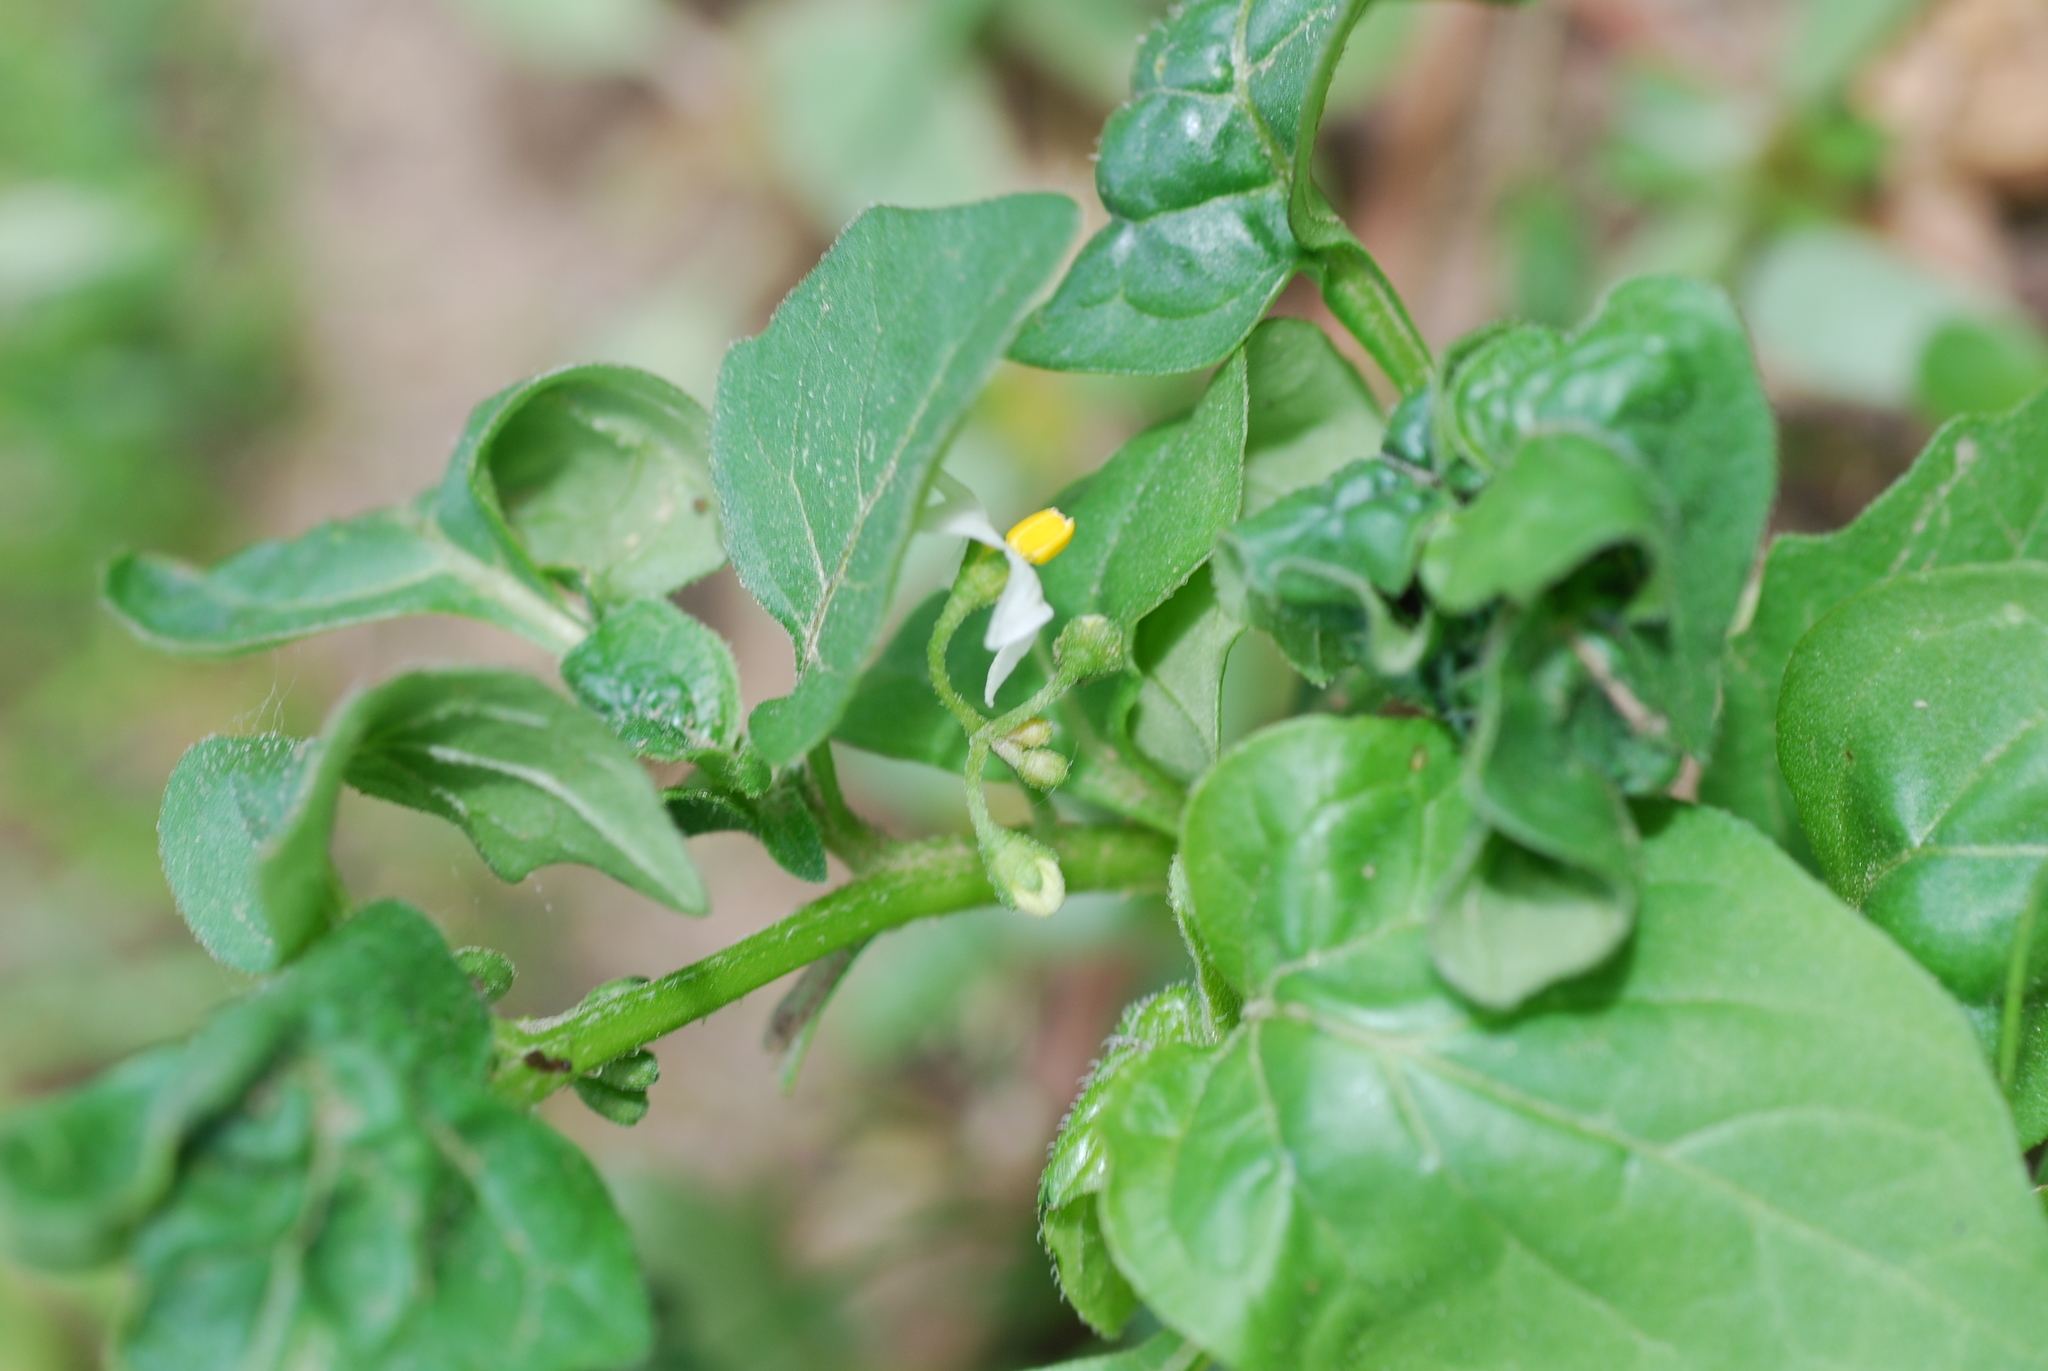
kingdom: Plantae
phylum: Tracheophyta
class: Magnoliopsida
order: Solanales
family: Solanaceae
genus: Solanum
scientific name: Solanum nigrum
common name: Black nightshade
